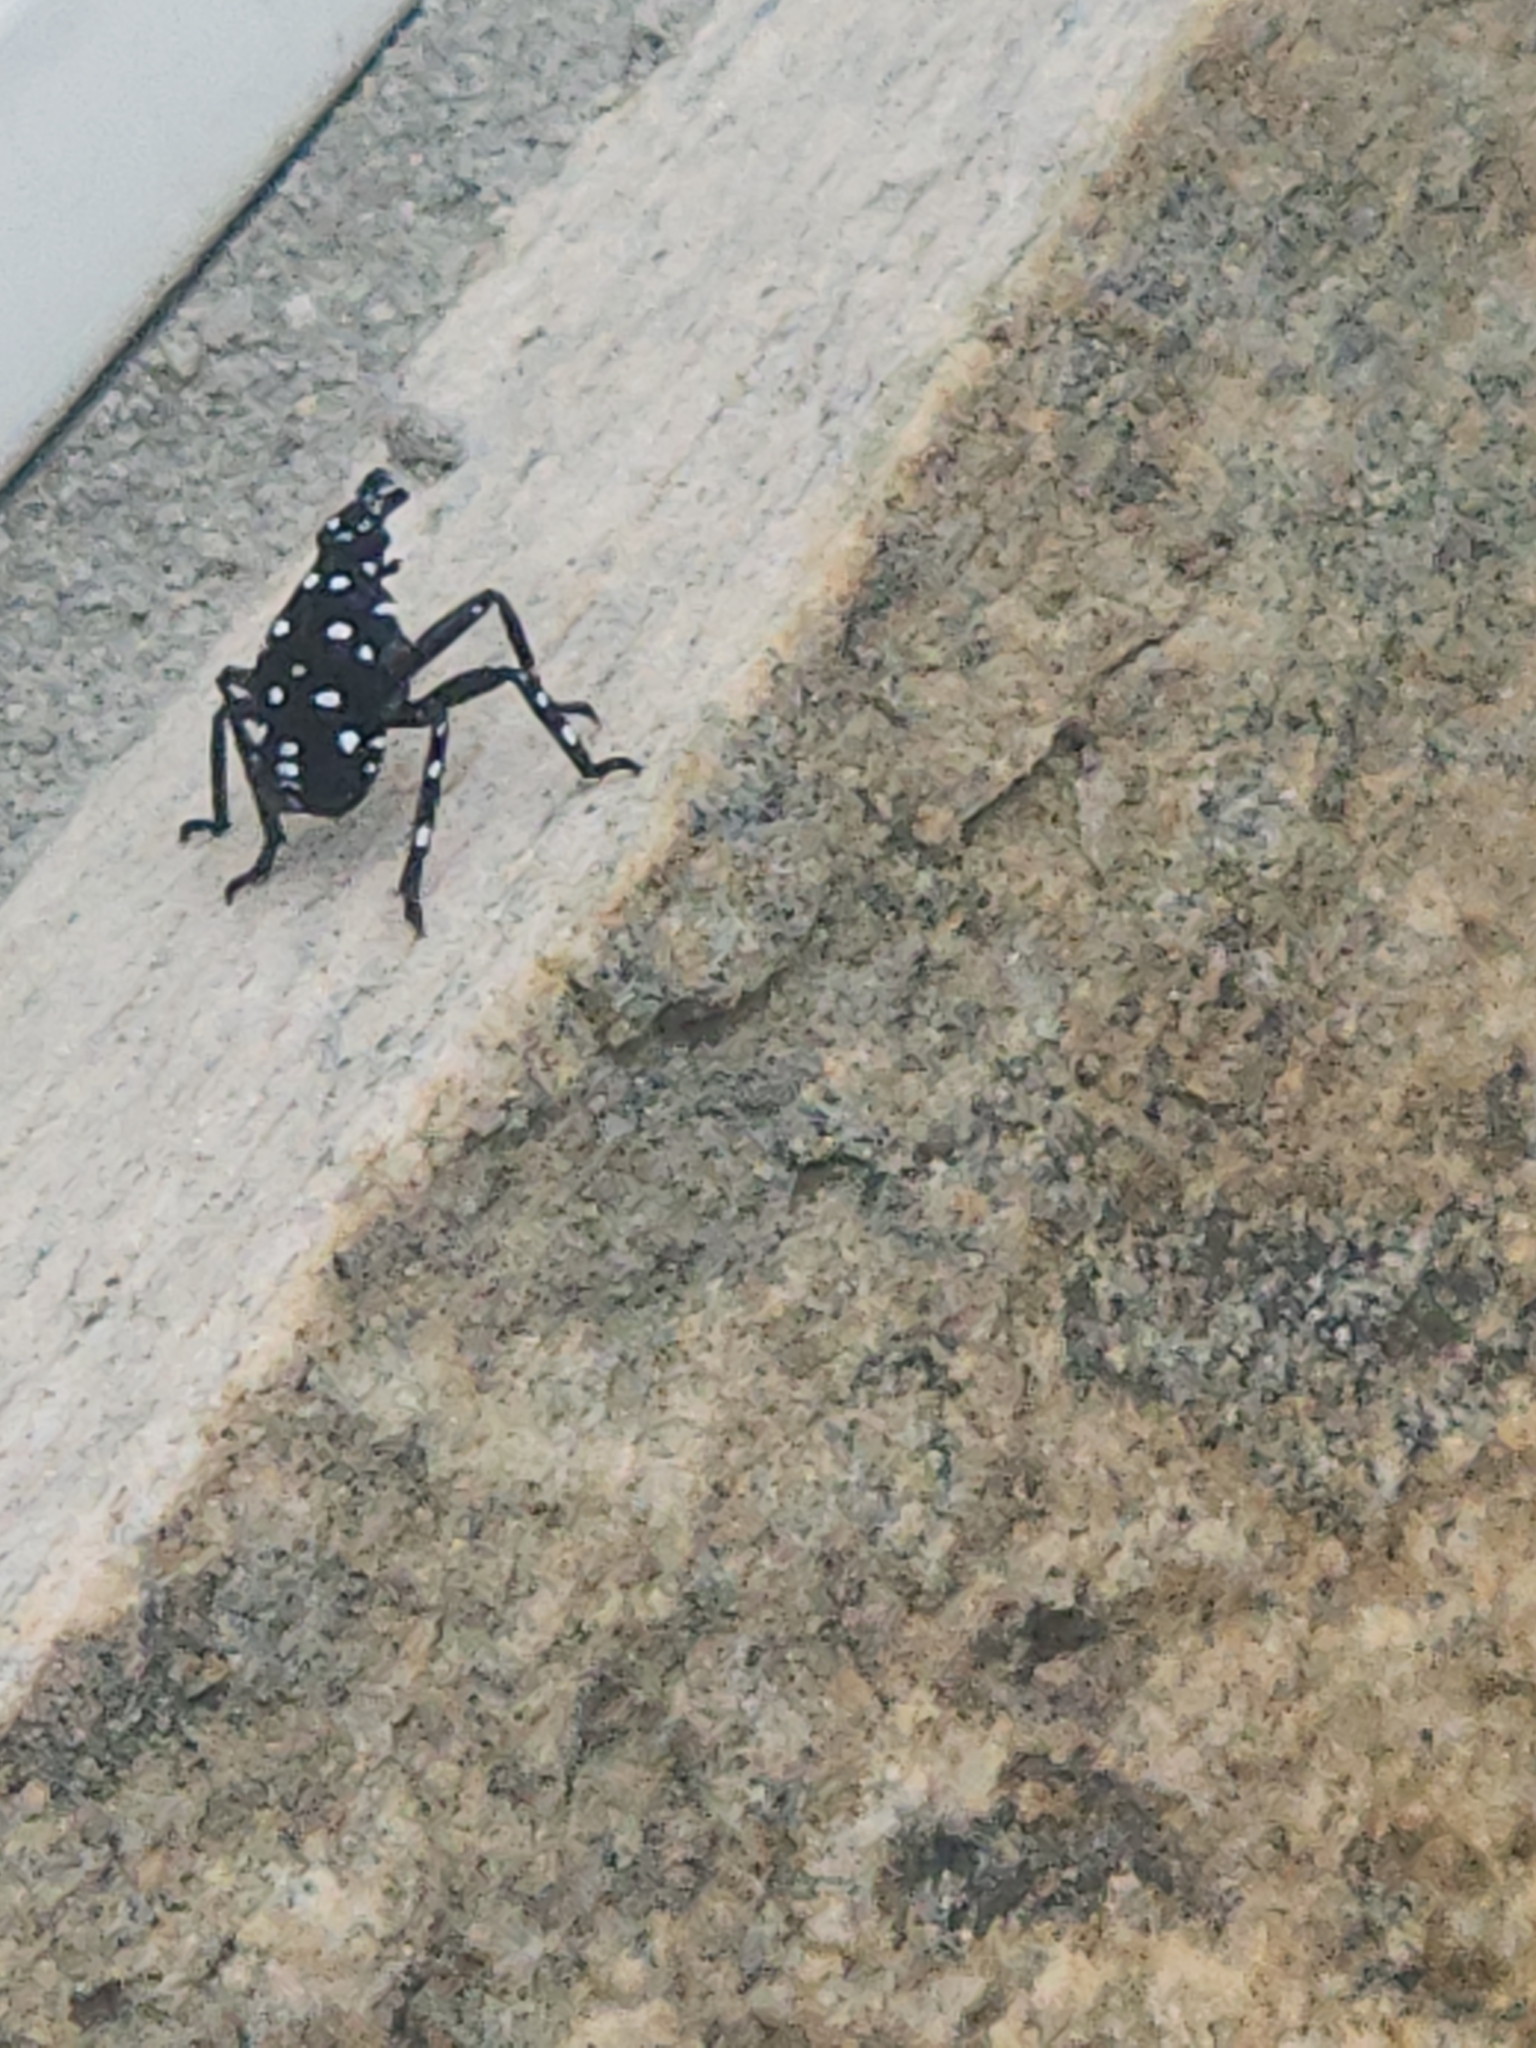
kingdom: Animalia
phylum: Arthropoda
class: Insecta
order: Hemiptera
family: Fulgoridae
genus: Lycorma
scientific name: Lycorma delicatula
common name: Spotted lanternfly
